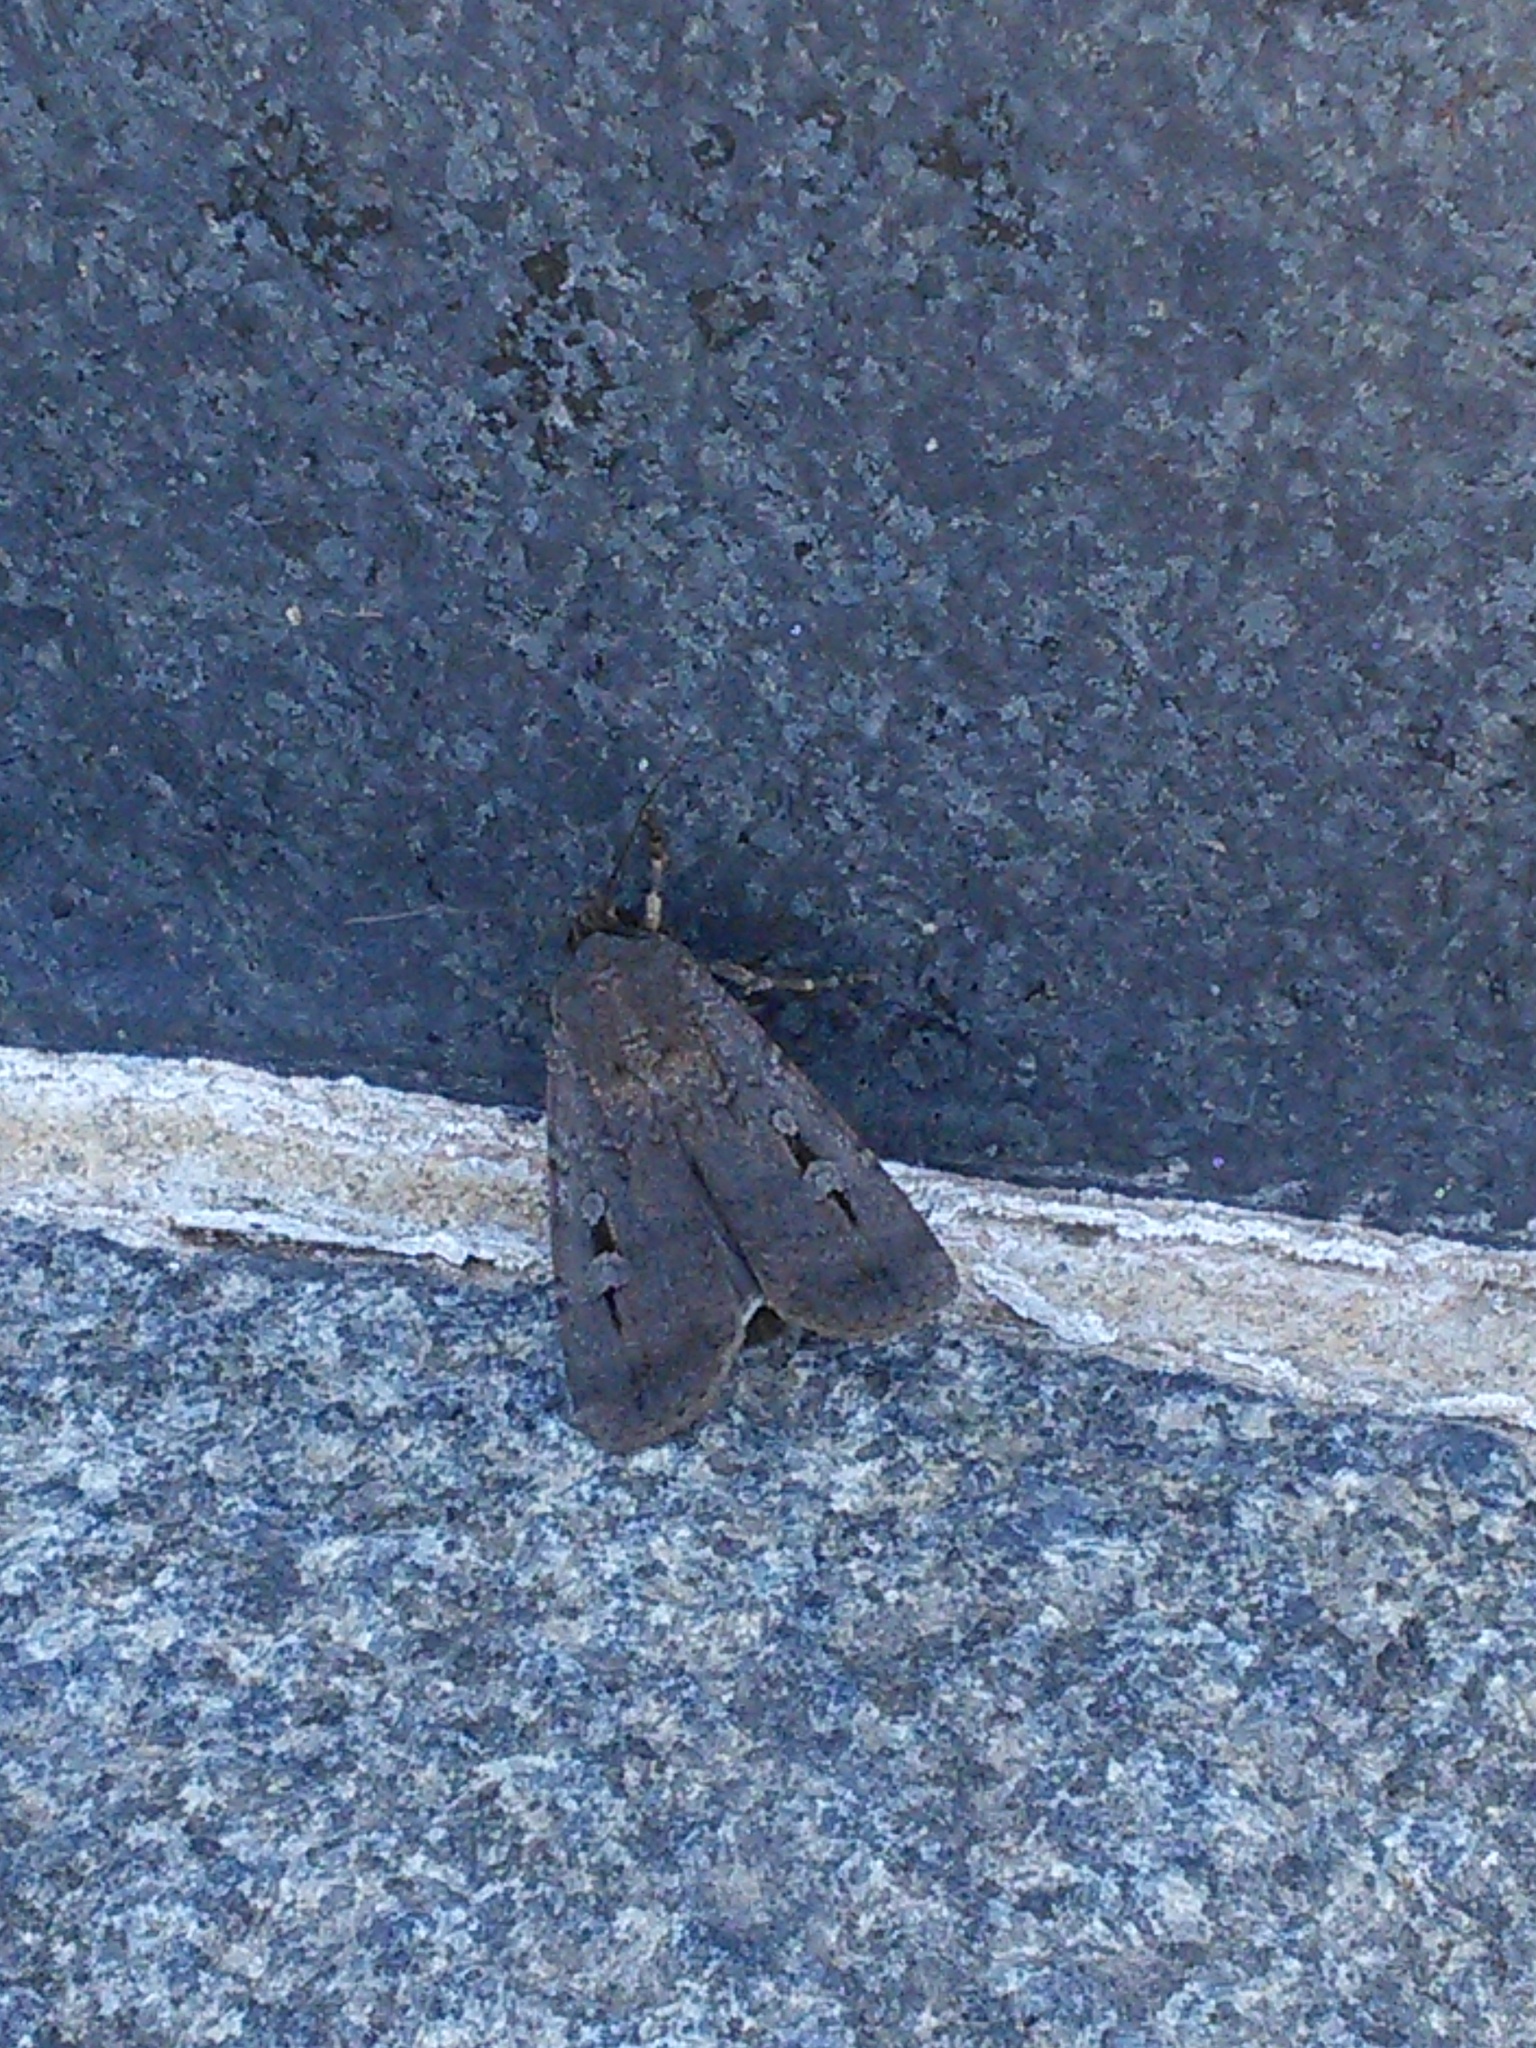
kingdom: Animalia
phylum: Arthropoda
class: Insecta
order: Lepidoptera
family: Noctuidae
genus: Agrotis
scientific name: Agrotis infusa
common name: Bogong moth
